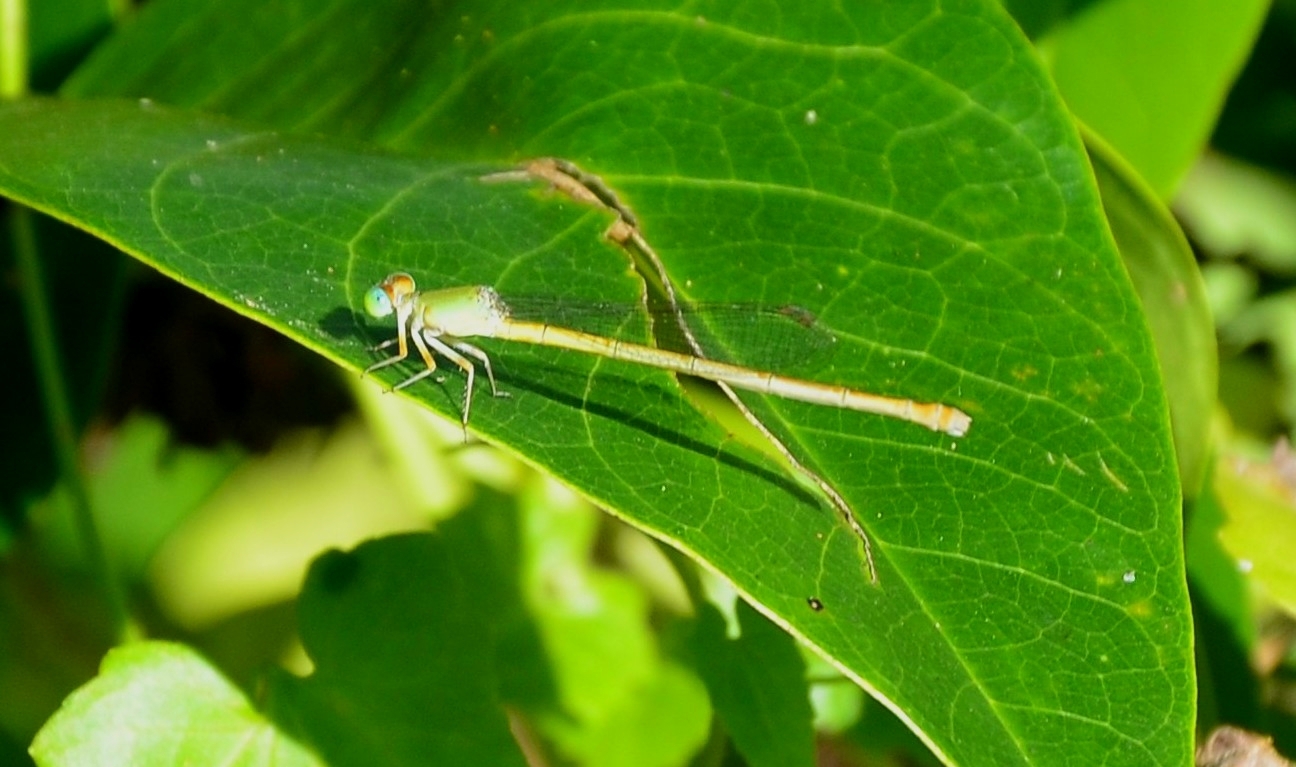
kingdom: Animalia
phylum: Arthropoda
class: Insecta
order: Odonata
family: Coenagrionidae
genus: Ceriagrion
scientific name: Ceriagrion coromandelianum
